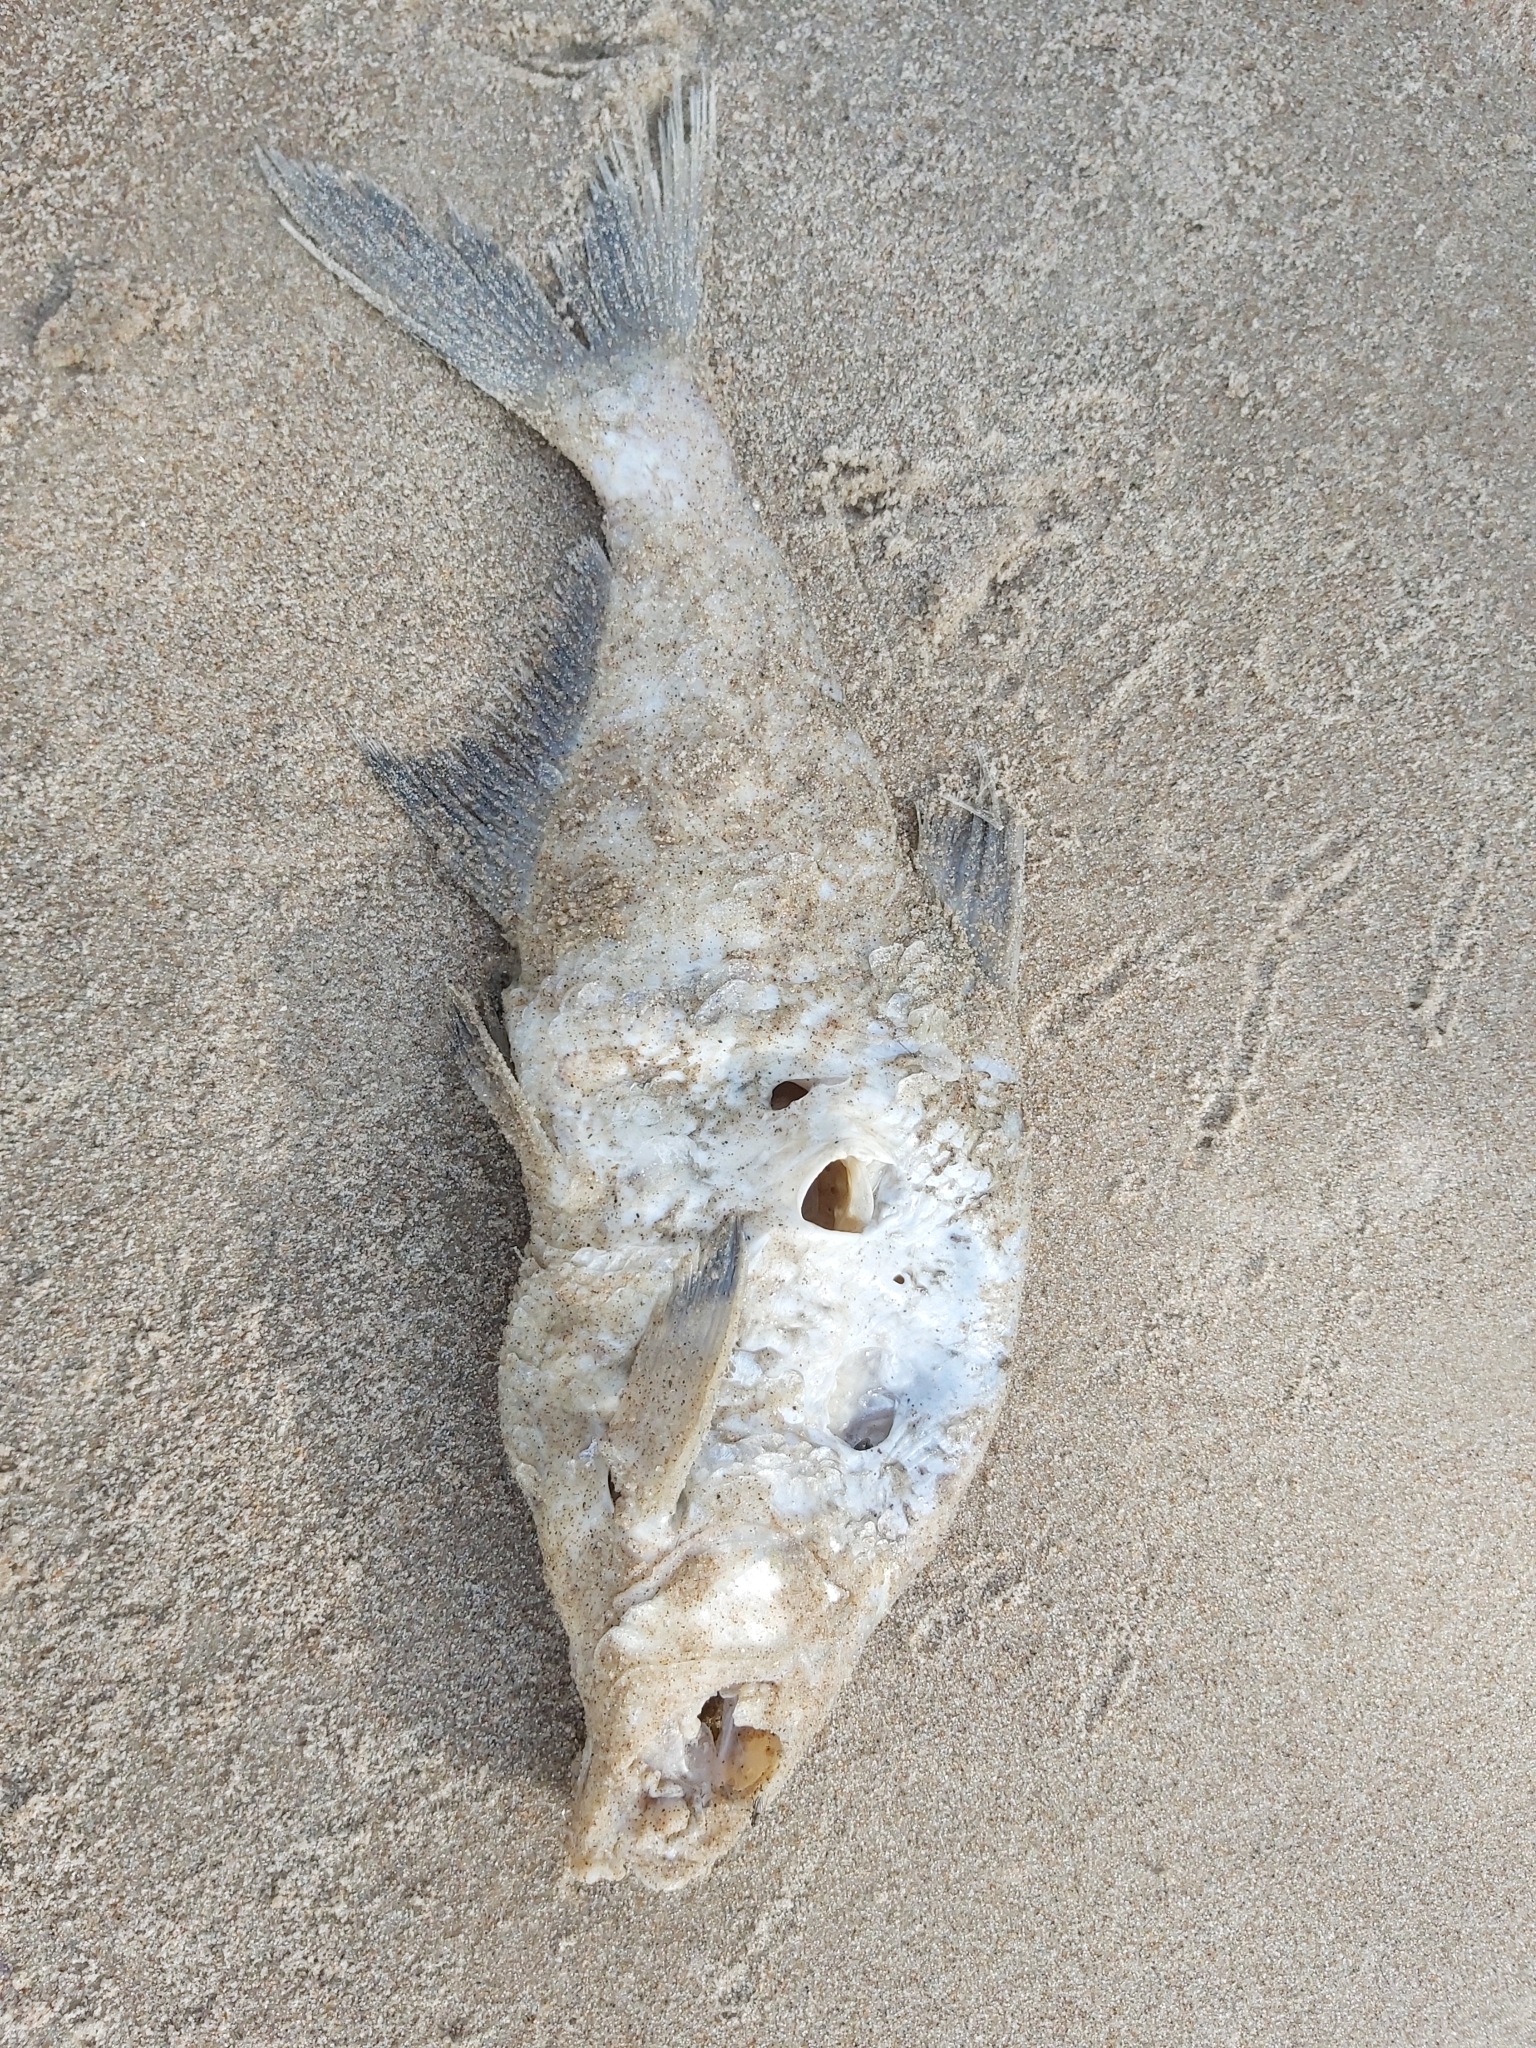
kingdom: Animalia
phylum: Chordata
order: Cypriniformes
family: Cyprinidae
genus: Abramis
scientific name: Abramis brama
